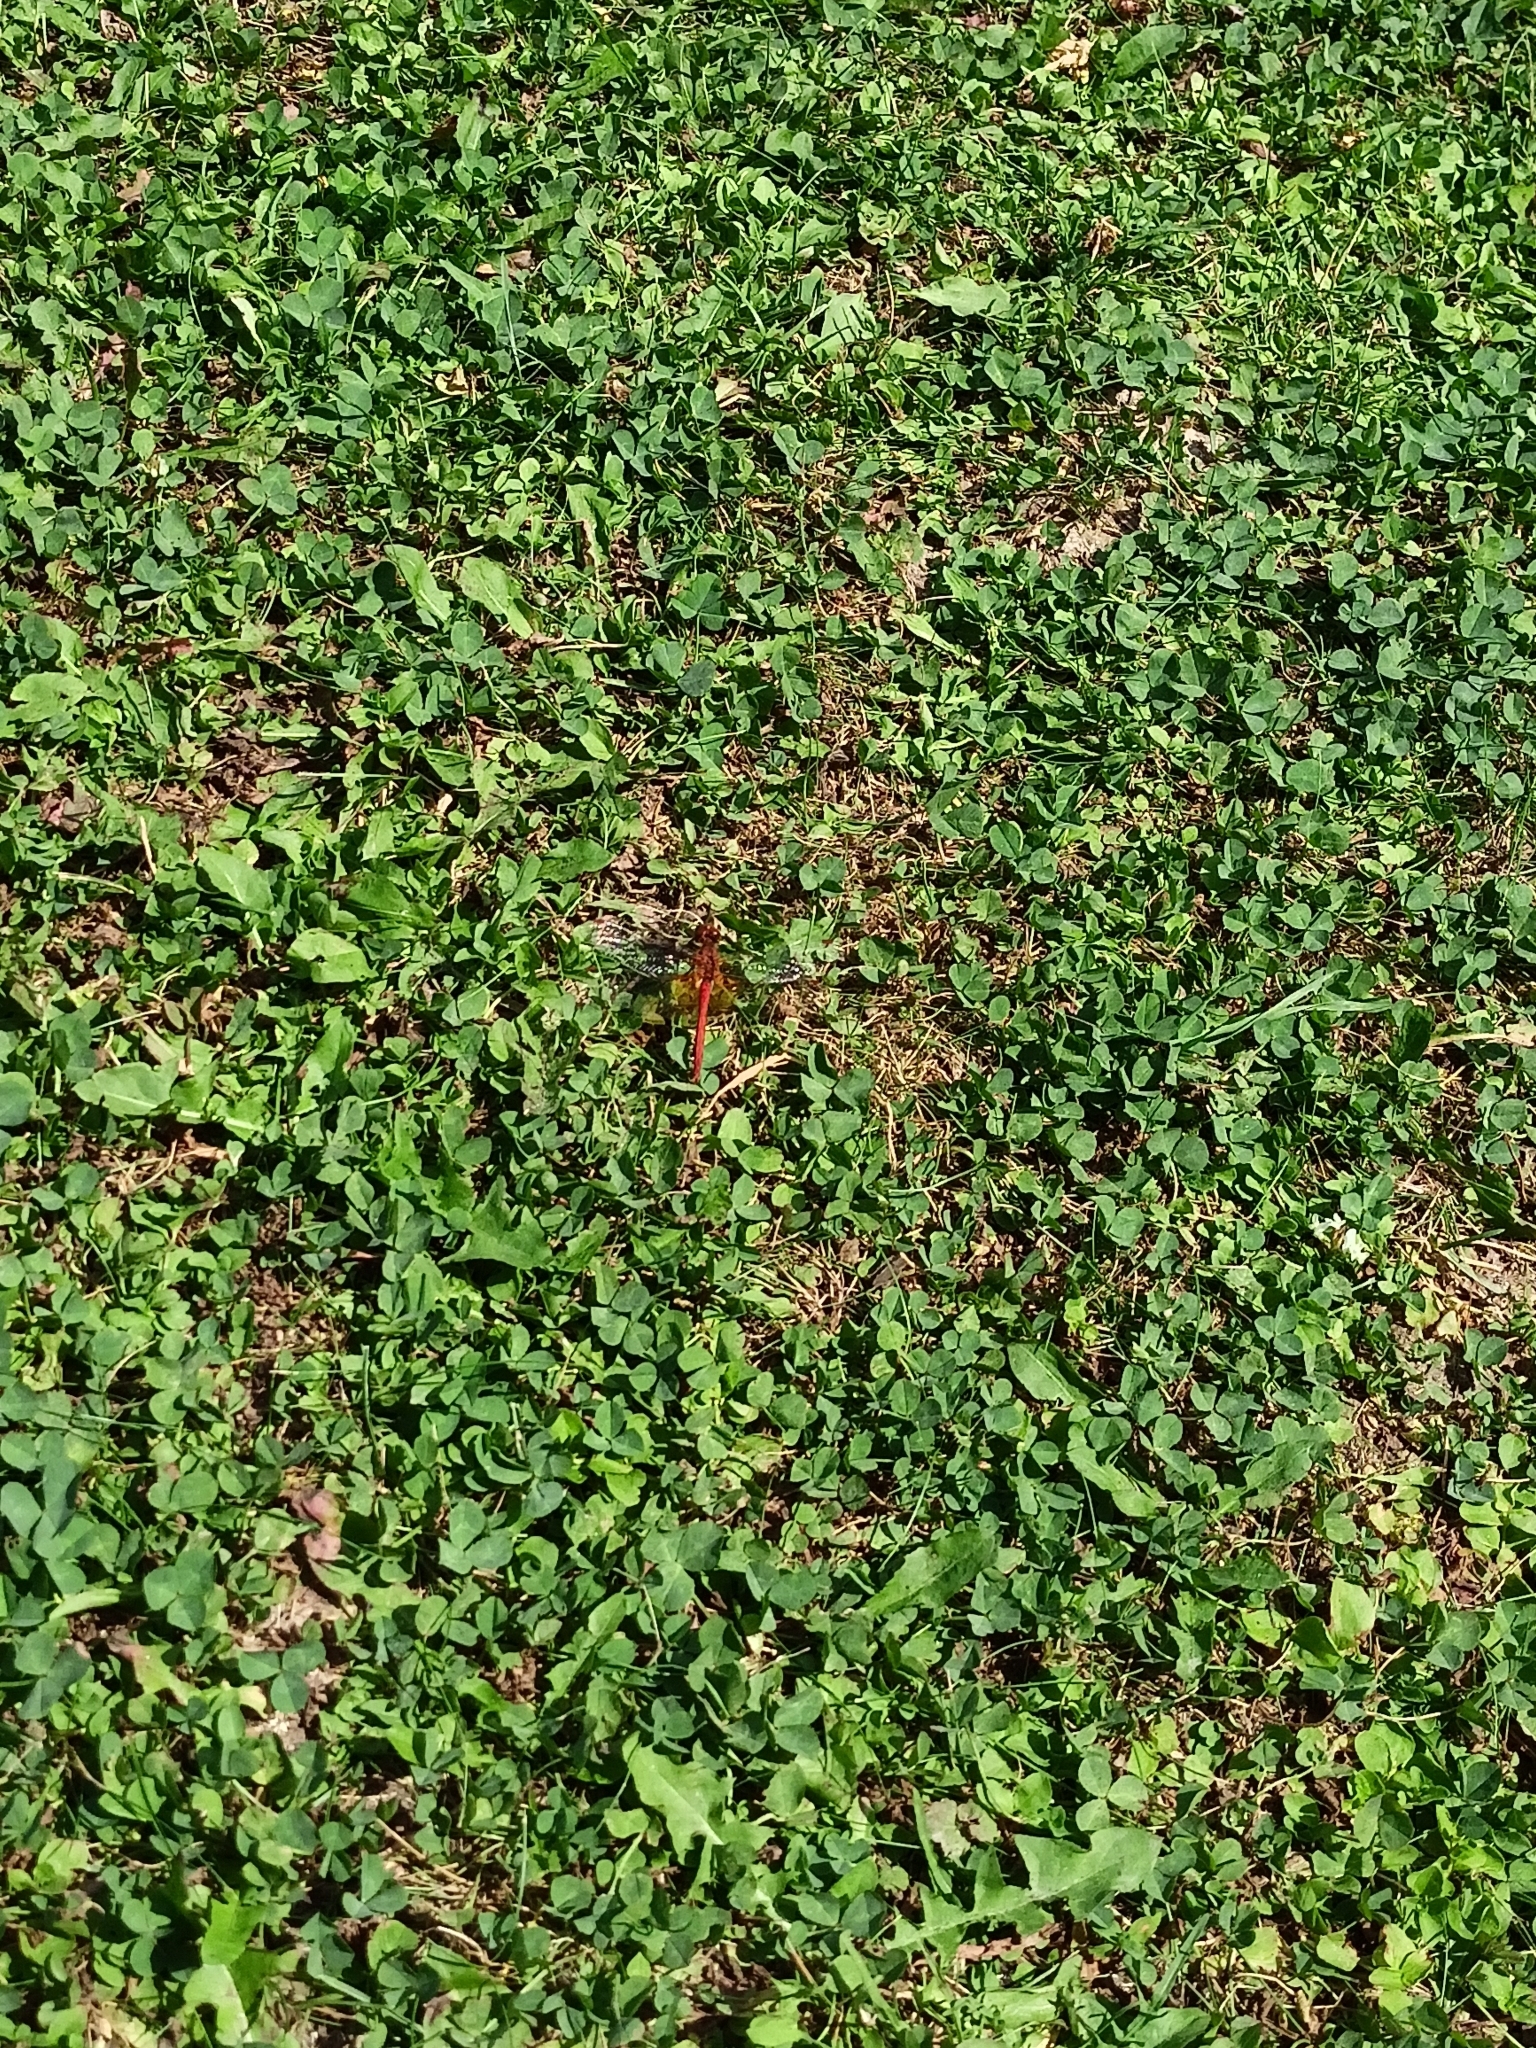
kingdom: Animalia
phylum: Arthropoda
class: Insecta
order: Odonata
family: Libellulidae
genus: Sympetrum
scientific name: Sympetrum flaveolum
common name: Yellow-winged darter
